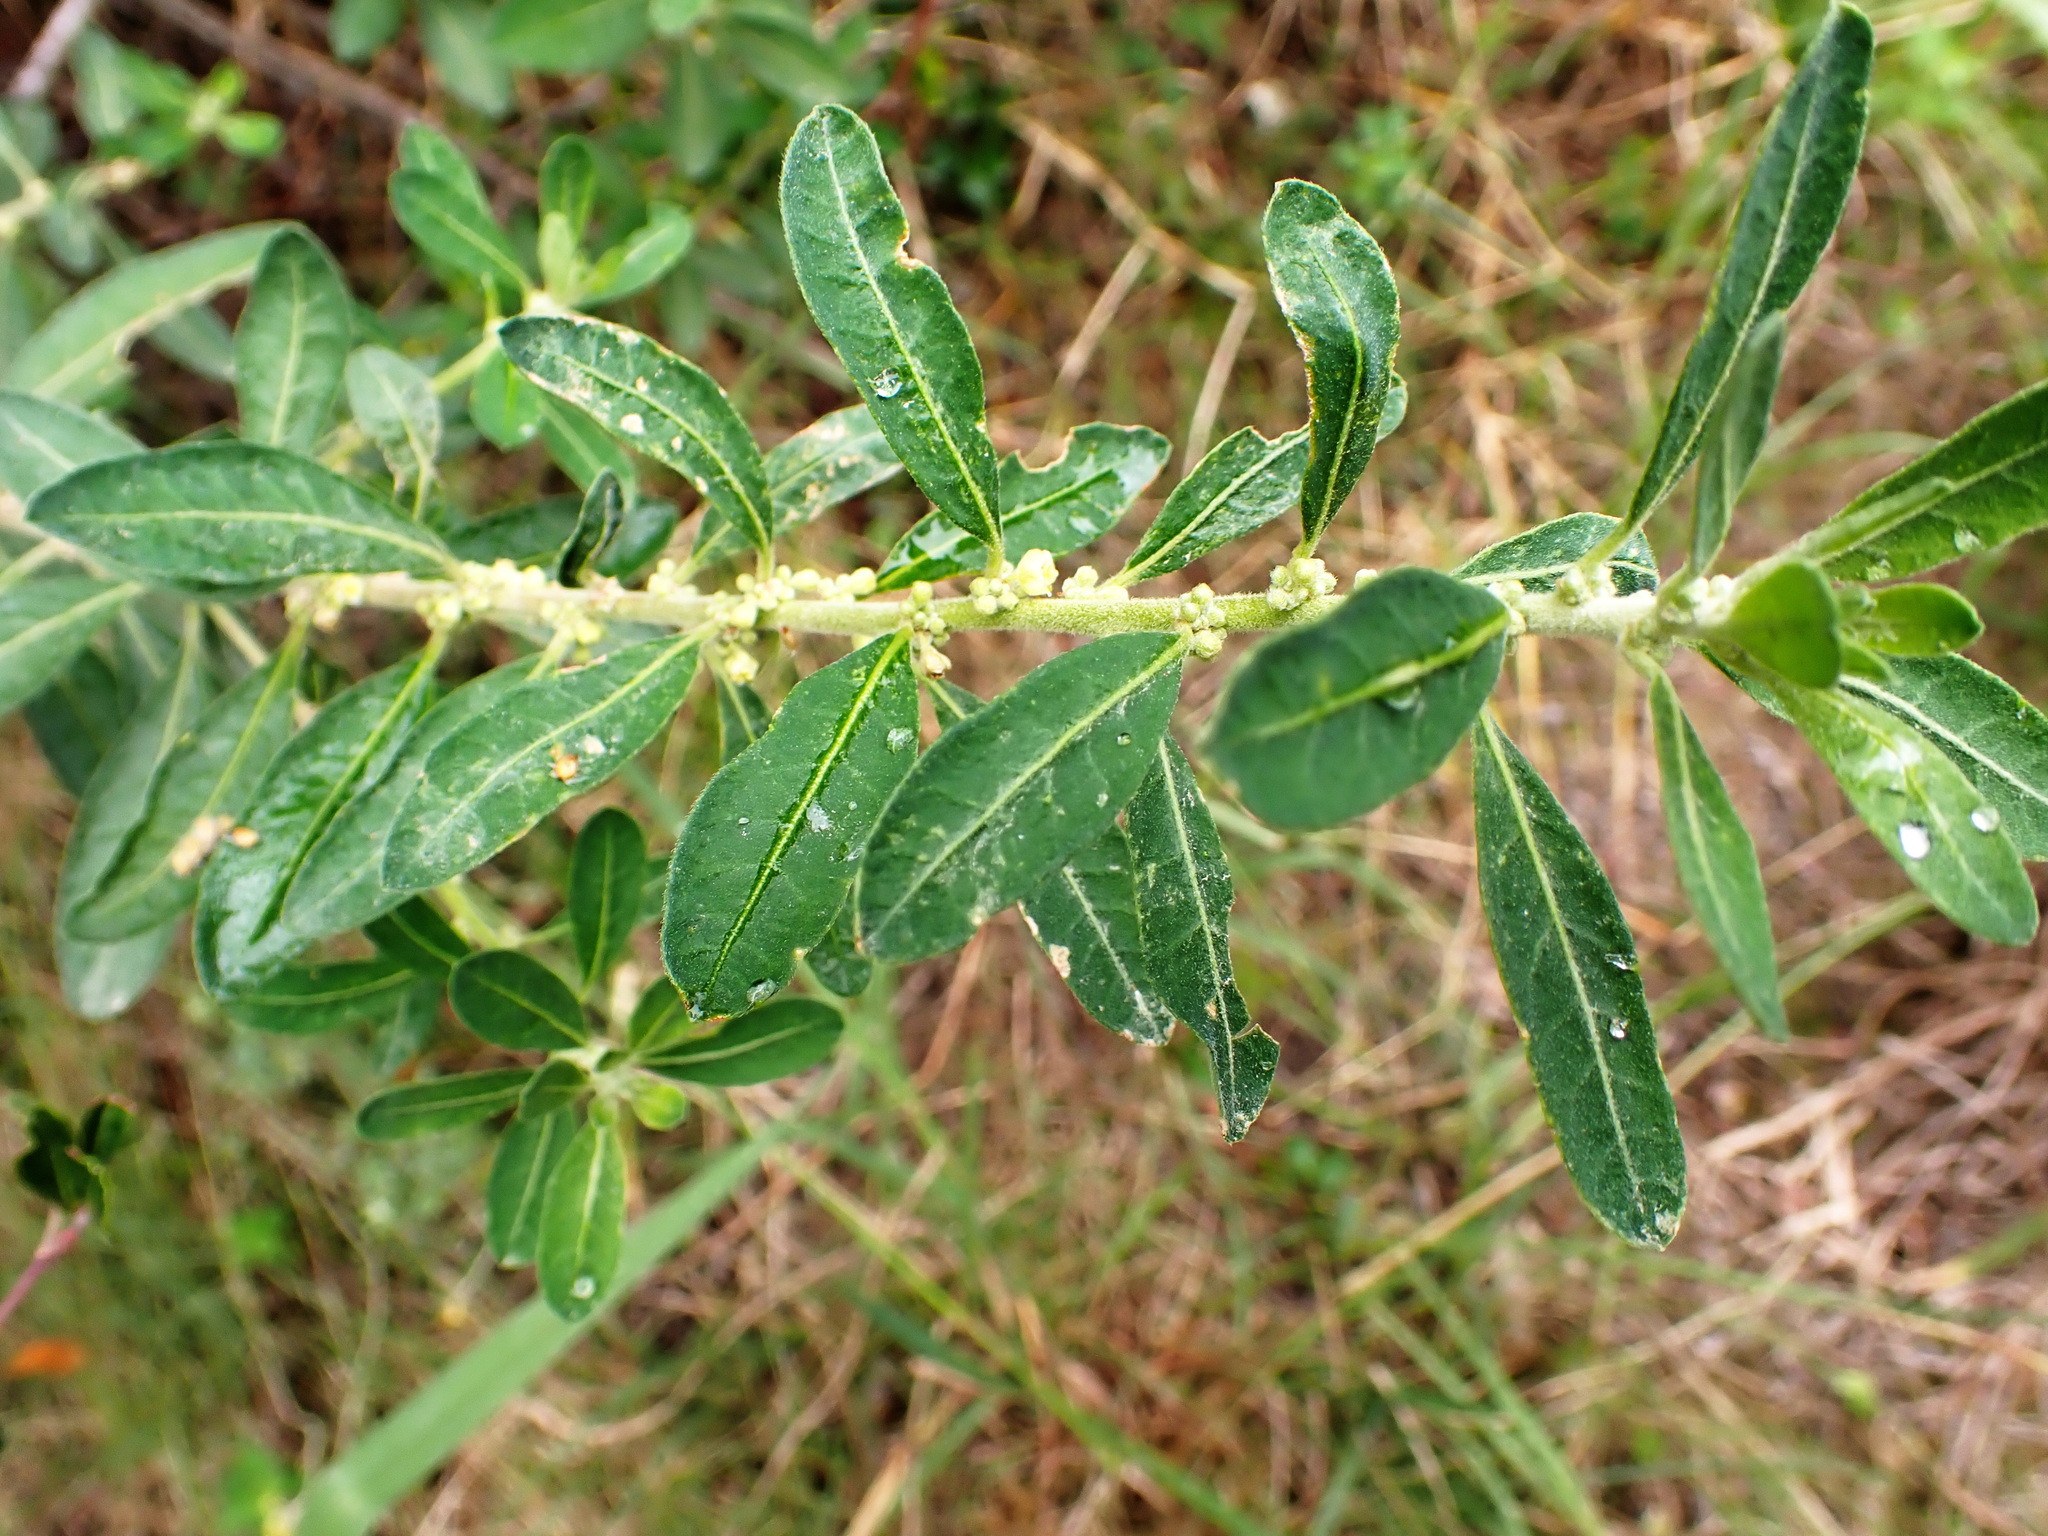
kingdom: Plantae
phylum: Tracheophyta
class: Magnoliopsida
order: Malpighiales
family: Peraceae
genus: Clutia
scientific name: Clutia pulchella
